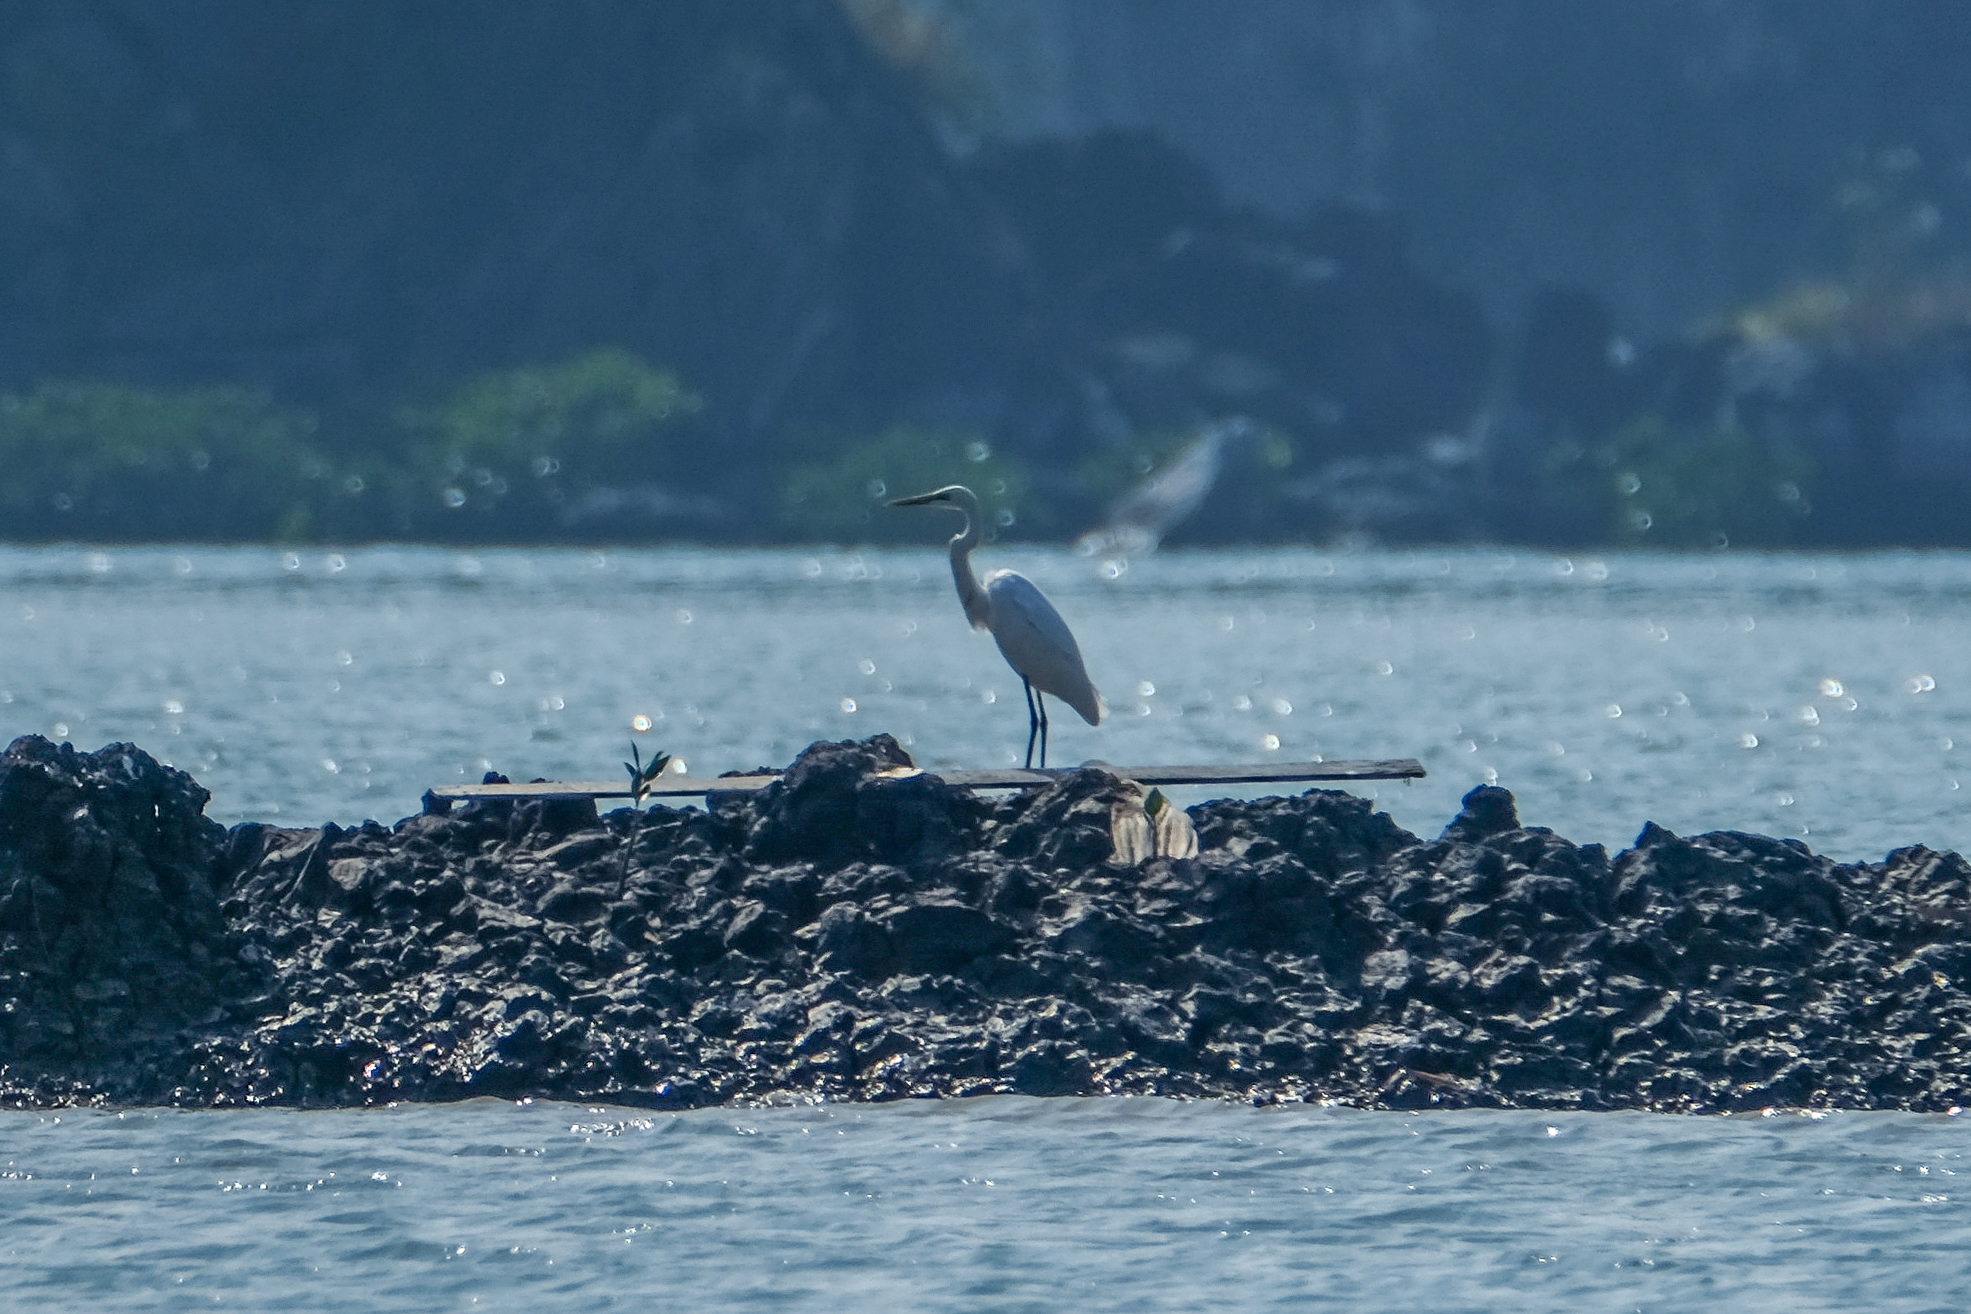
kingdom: Animalia
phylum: Chordata
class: Aves
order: Pelecaniformes
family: Ardeidae
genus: Ardea
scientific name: Ardea alba
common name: Great egret
